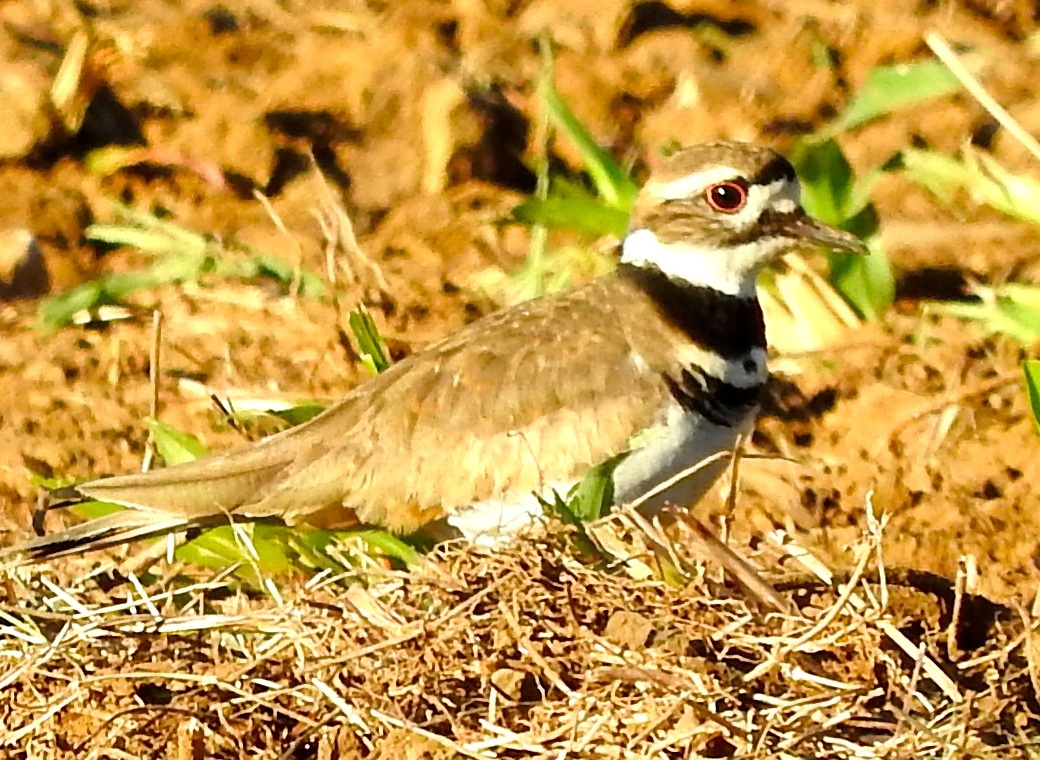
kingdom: Animalia
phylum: Chordata
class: Aves
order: Charadriiformes
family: Charadriidae
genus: Charadrius
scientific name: Charadrius vociferus
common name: Killdeer
